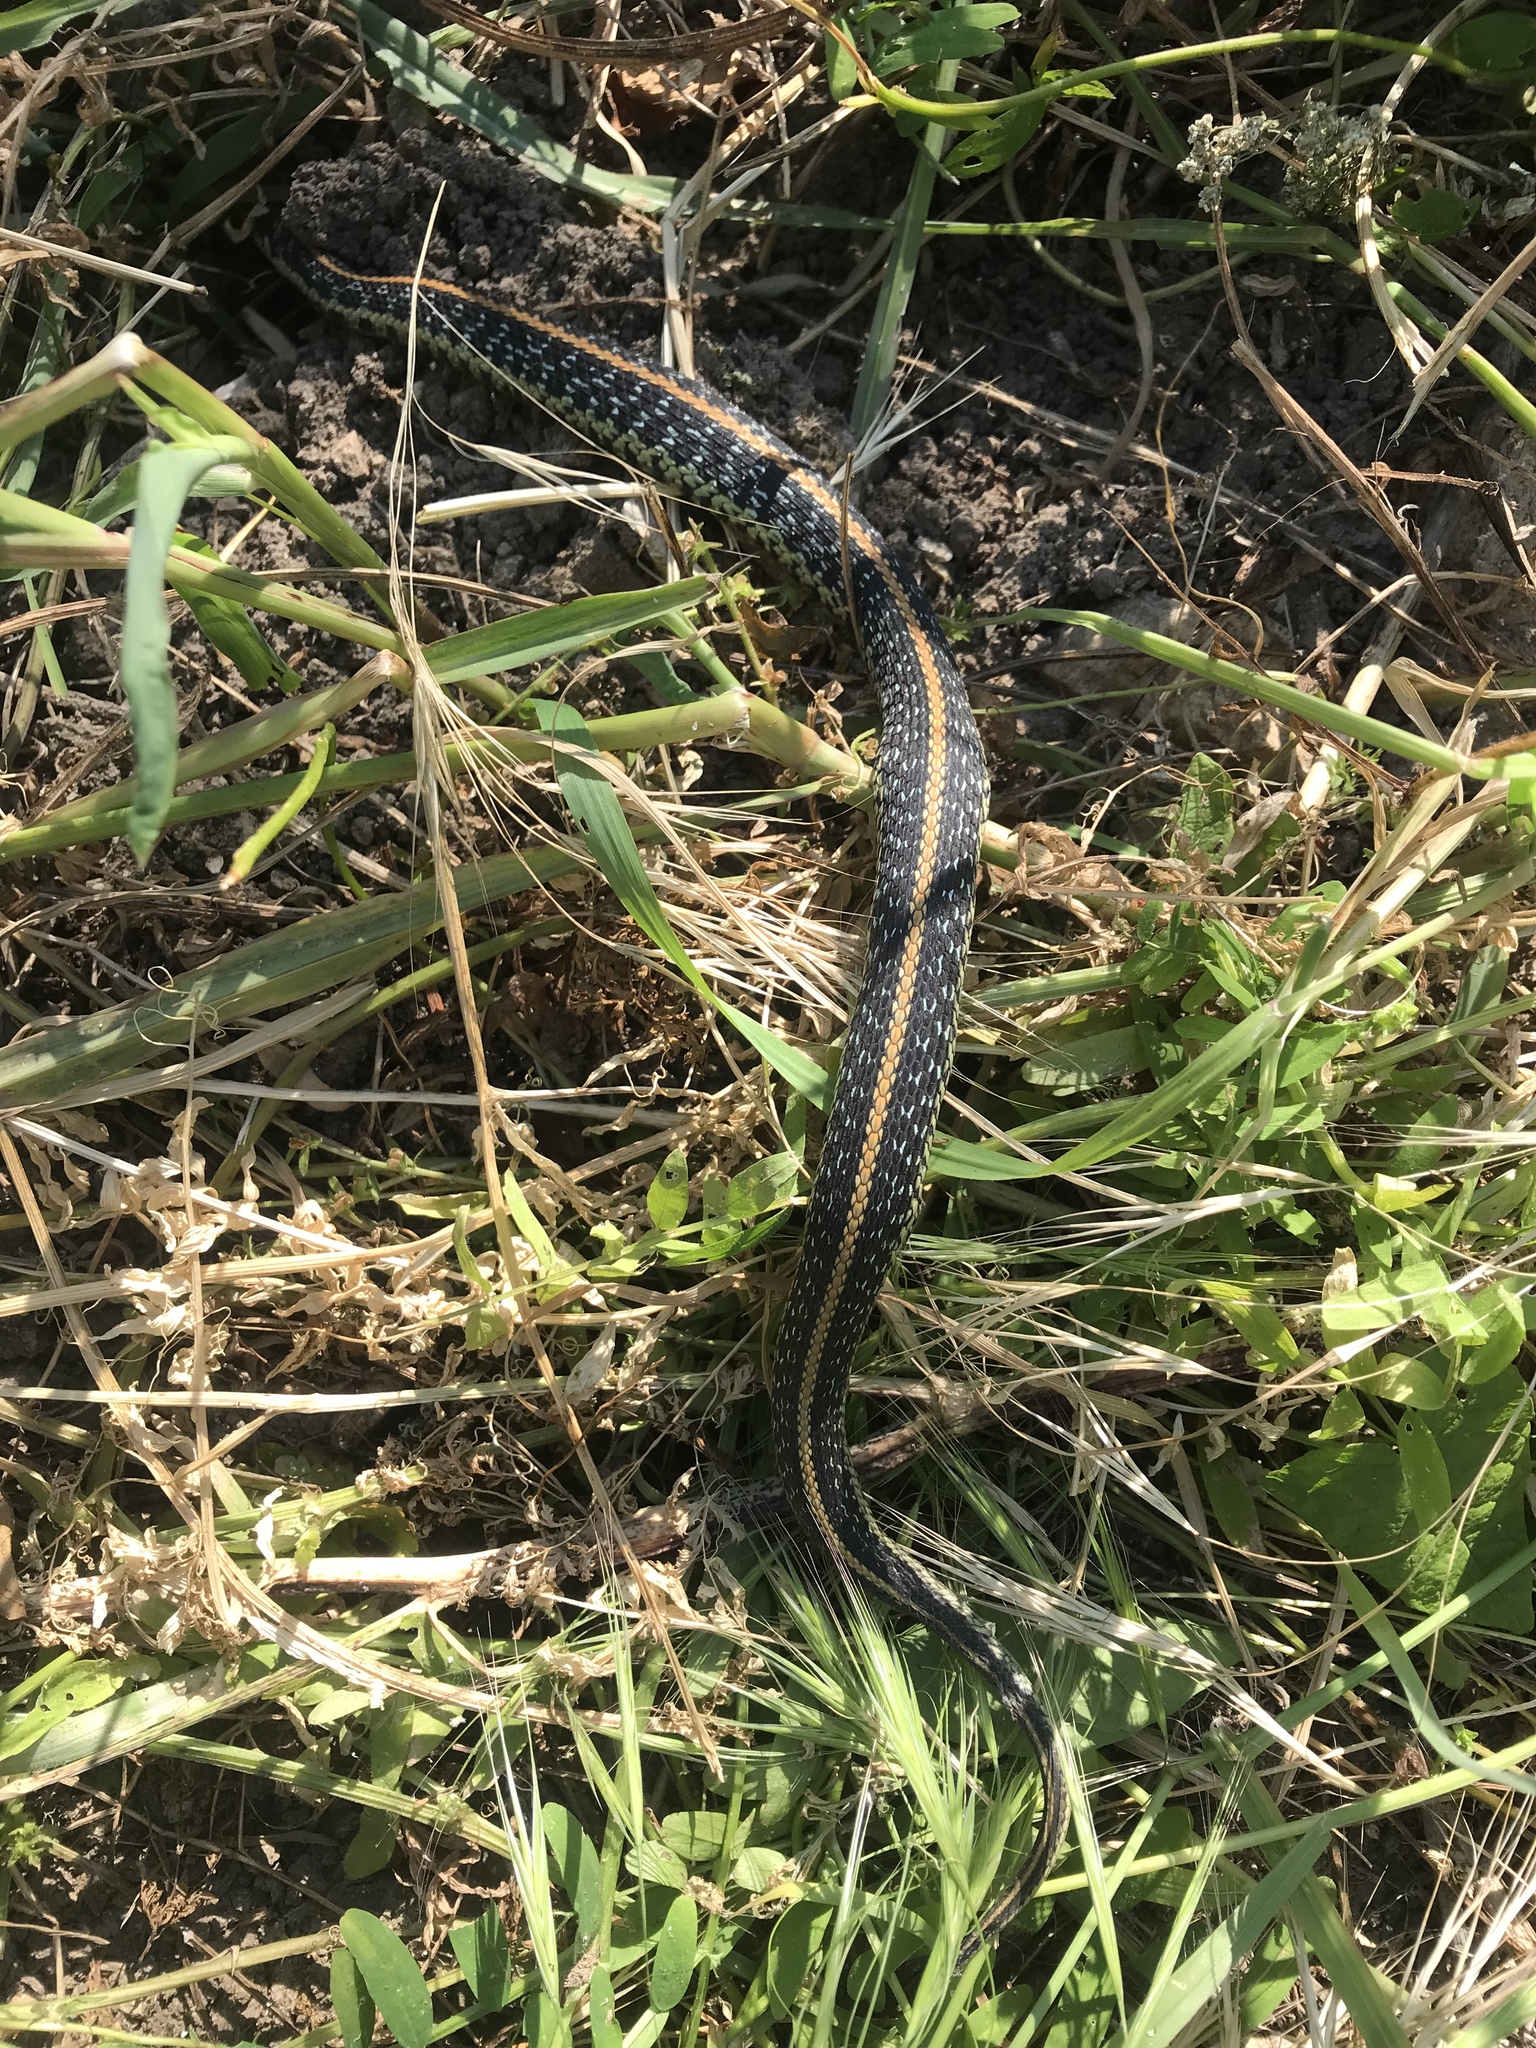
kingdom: Animalia
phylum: Chordata
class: Squamata
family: Colubridae
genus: Thamnophis
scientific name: Thamnophis sirtalis
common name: Common garter snake
